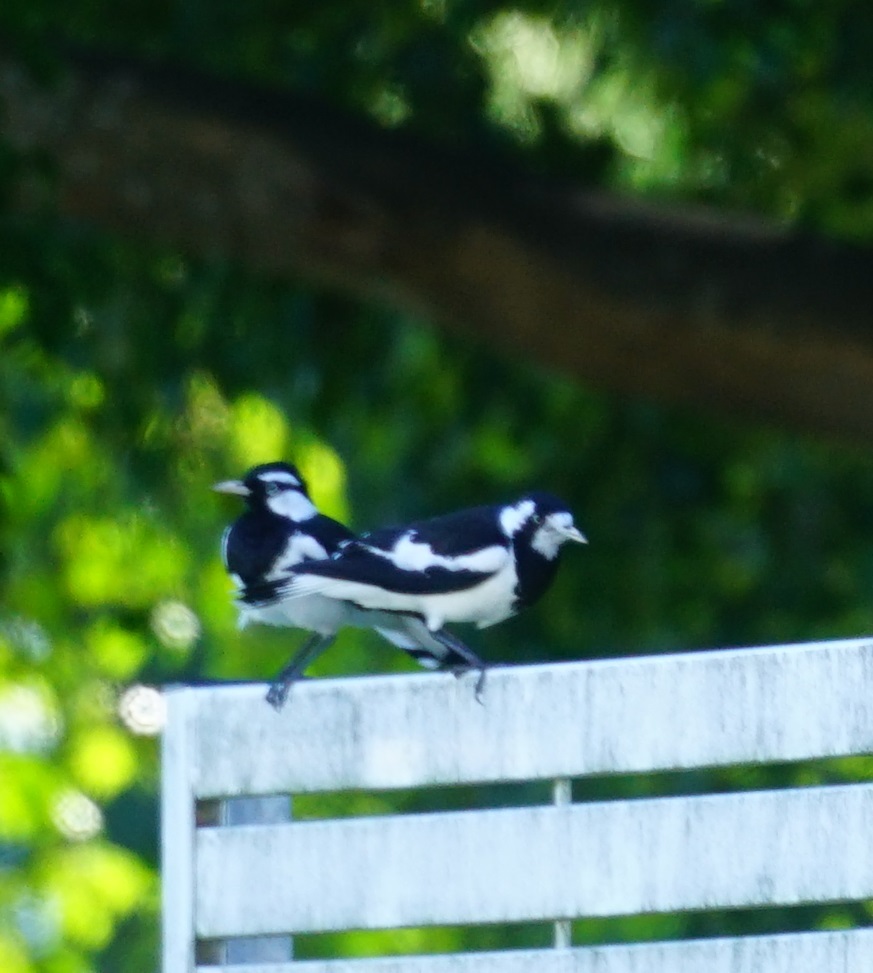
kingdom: Animalia
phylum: Chordata
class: Aves
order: Passeriformes
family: Monarchidae
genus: Grallina
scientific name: Grallina cyanoleuca
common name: Magpie-lark
